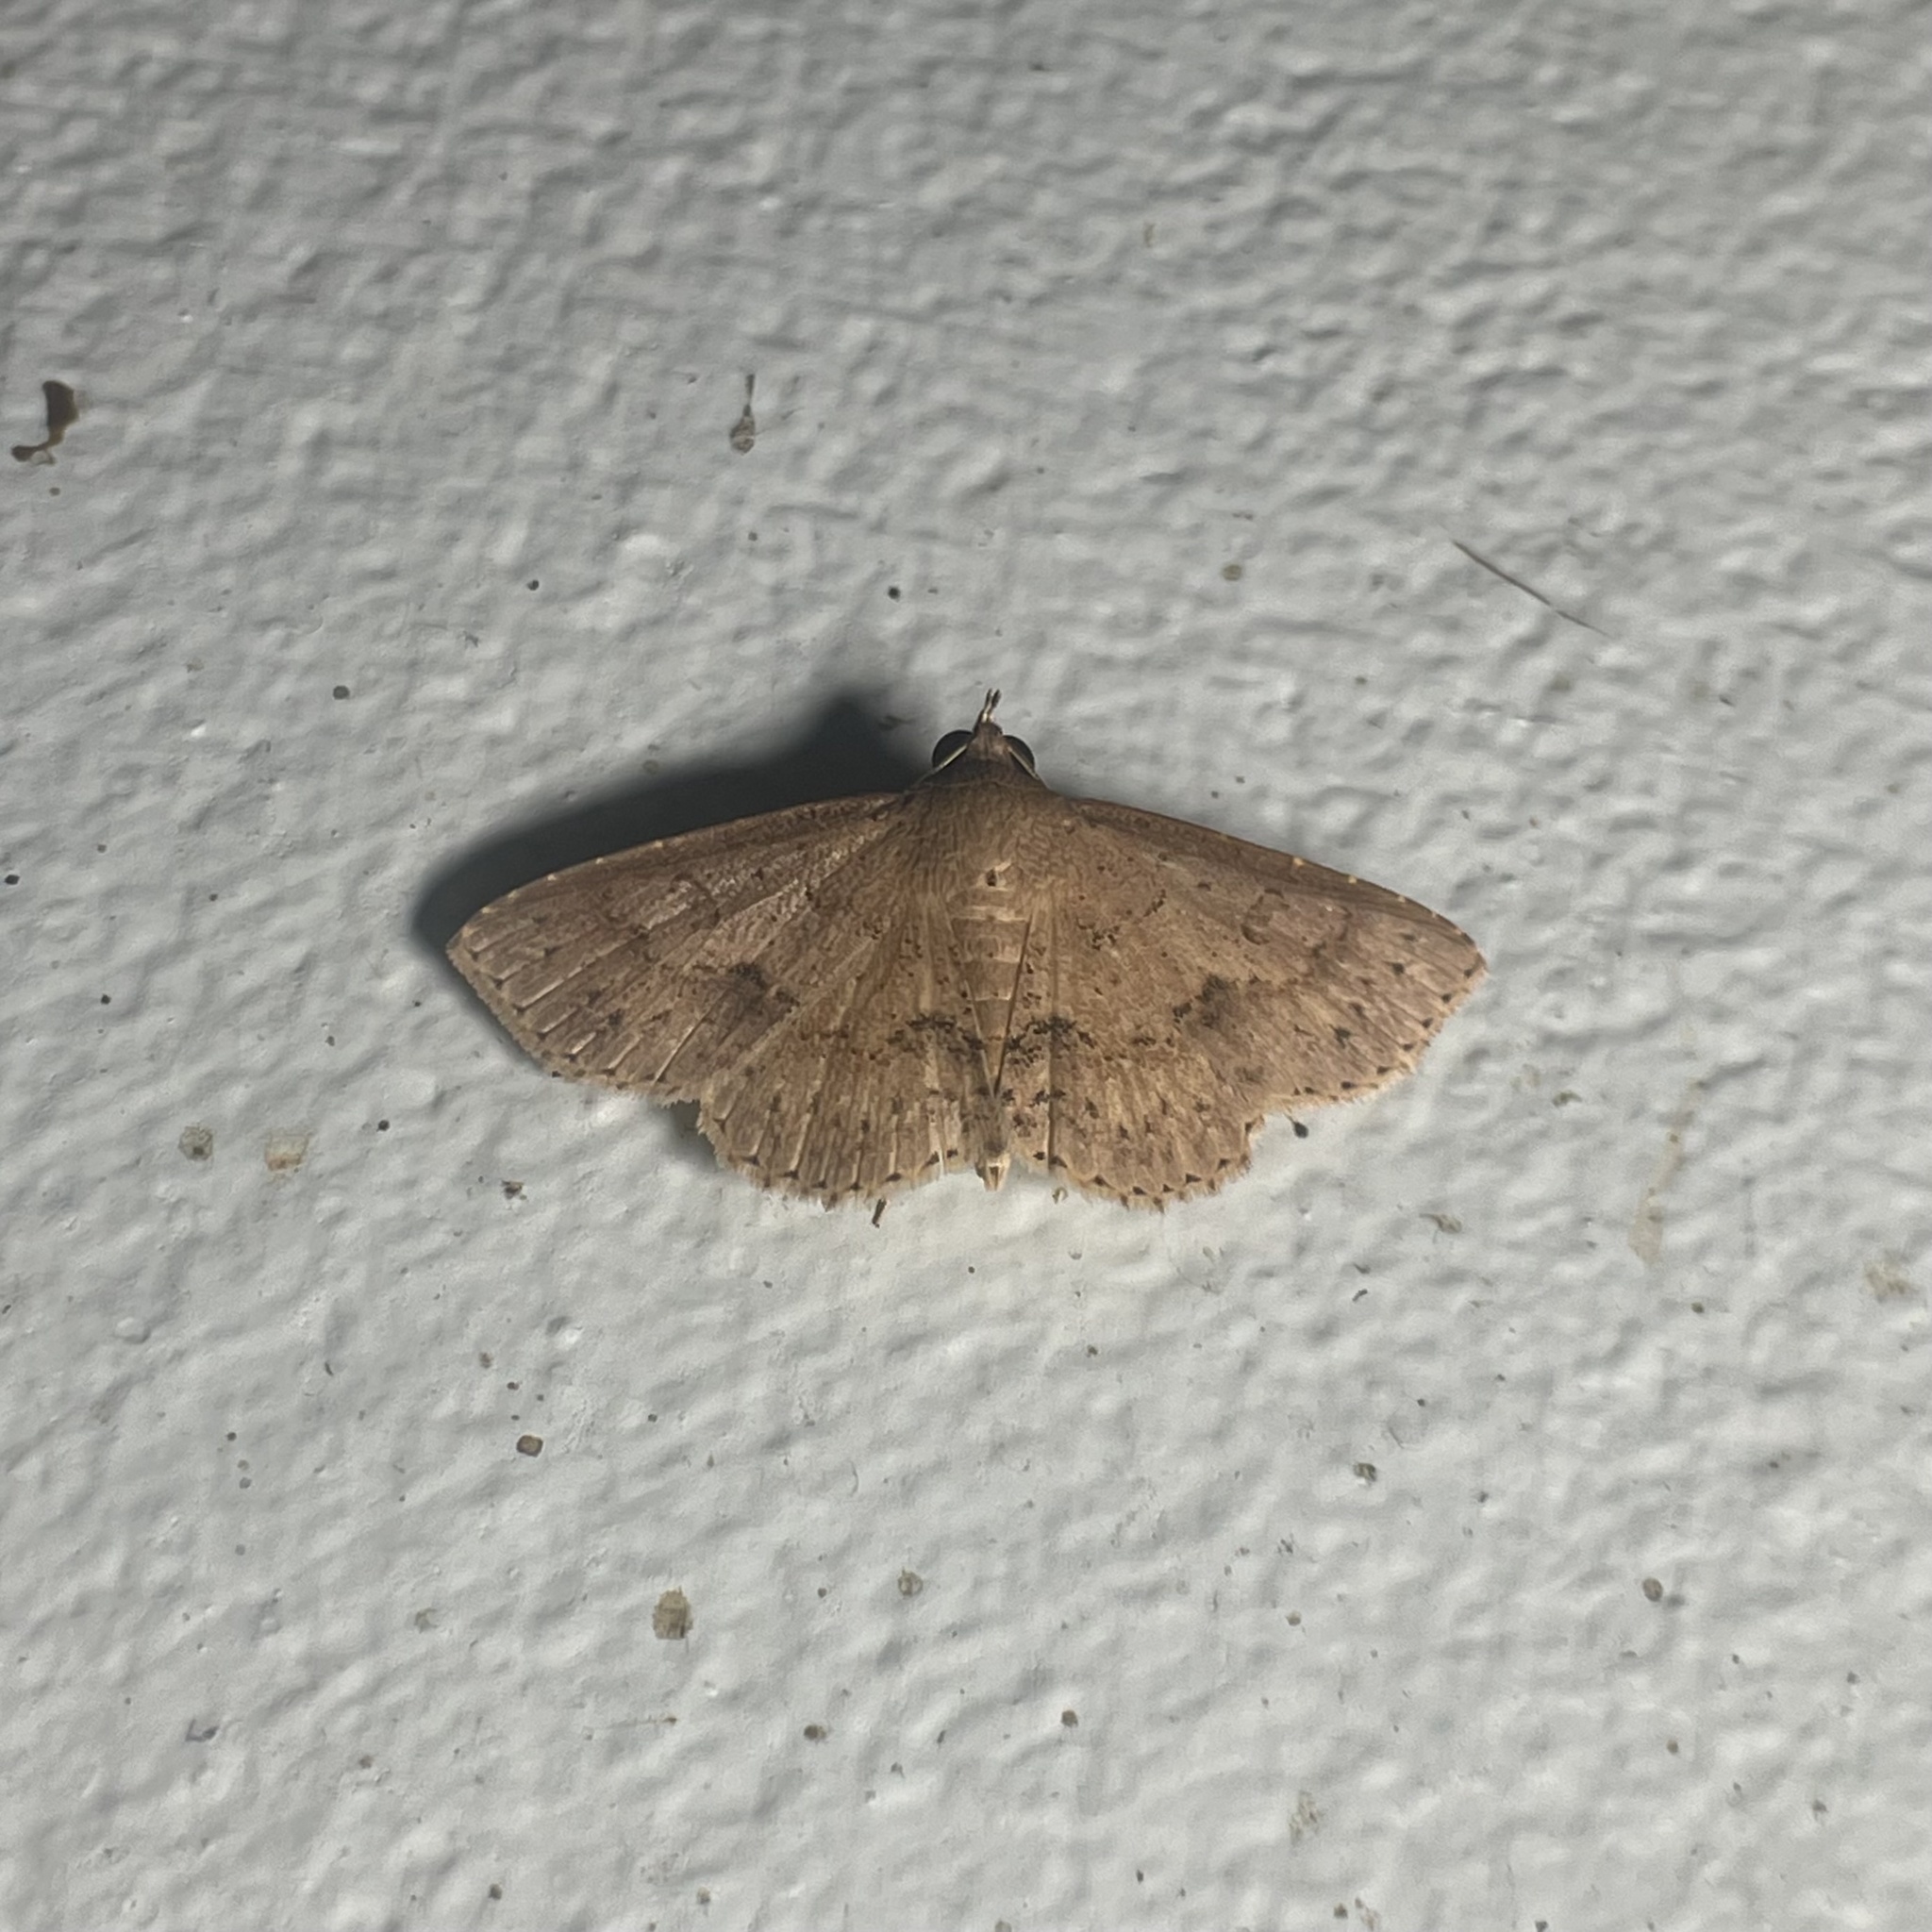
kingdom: Animalia
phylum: Arthropoda
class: Insecta
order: Lepidoptera
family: Erebidae
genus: Antiblemma
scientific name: Antiblemma melanoides
